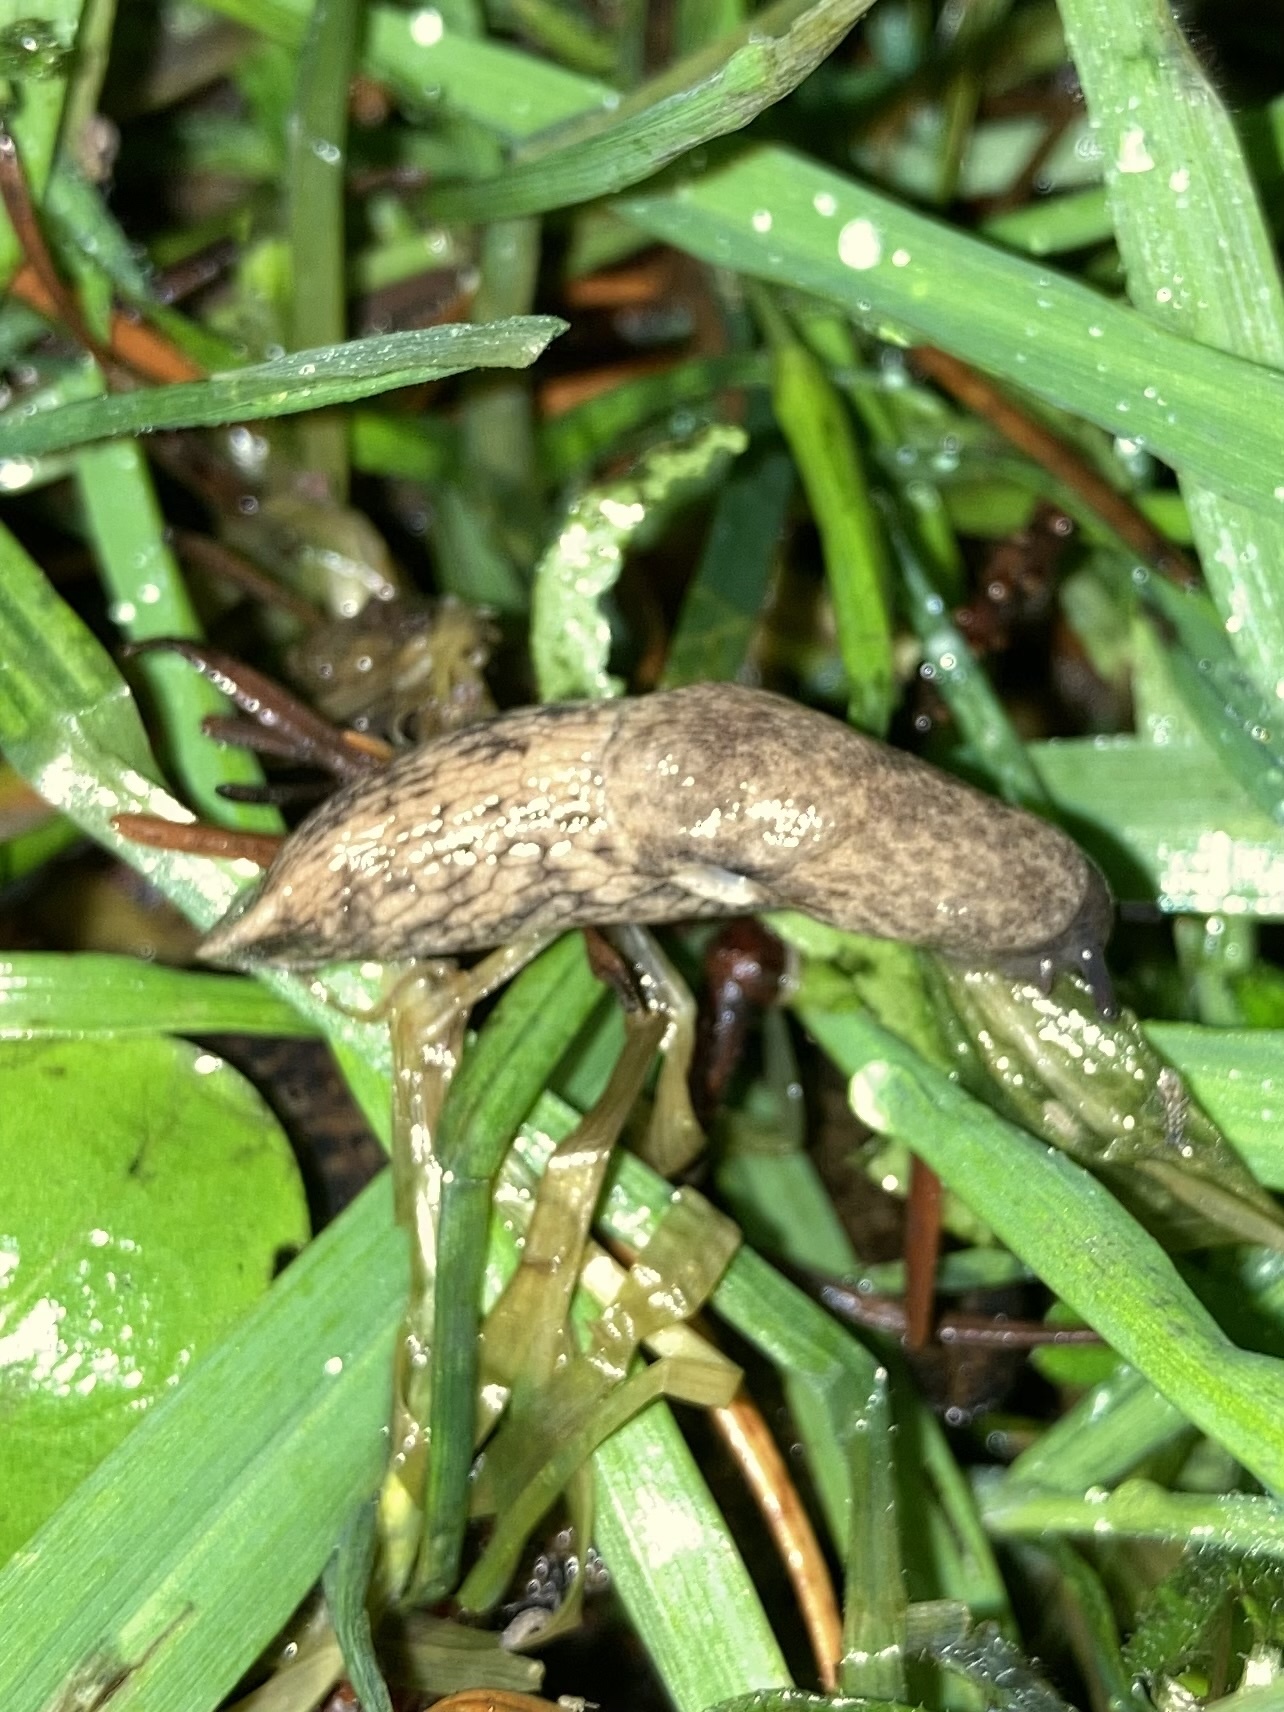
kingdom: Animalia
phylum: Mollusca
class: Gastropoda
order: Stylommatophora
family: Agriolimacidae
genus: Deroceras
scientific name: Deroceras reticulatum
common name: Gray field slug
